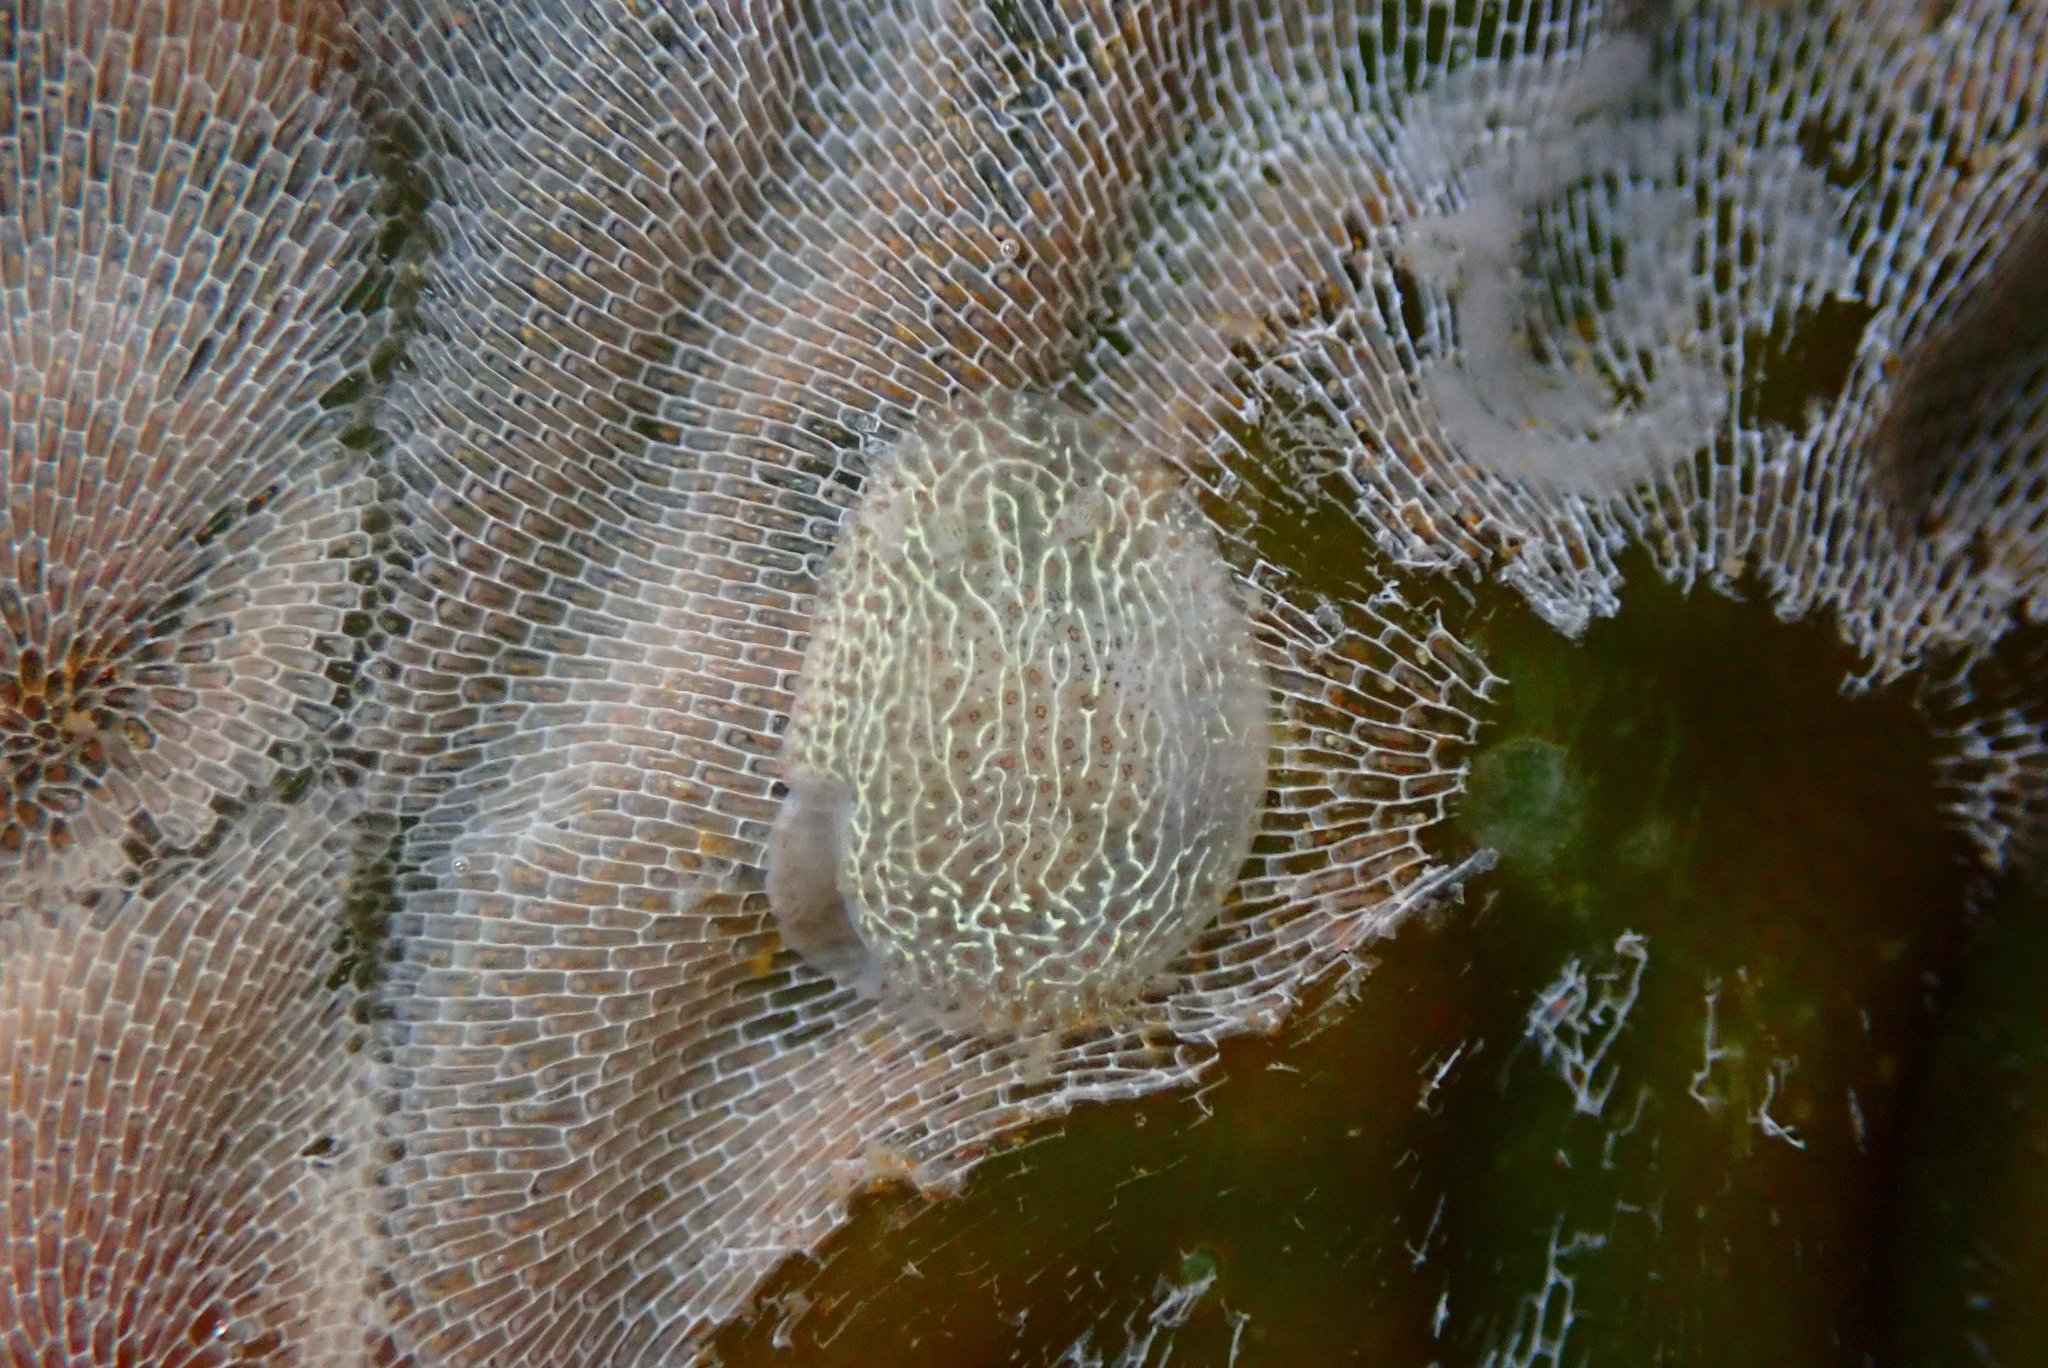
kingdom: Animalia
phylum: Mollusca
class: Gastropoda
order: Nudibranchia
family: Corambidae
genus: Corambe
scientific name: Corambe pacifica
